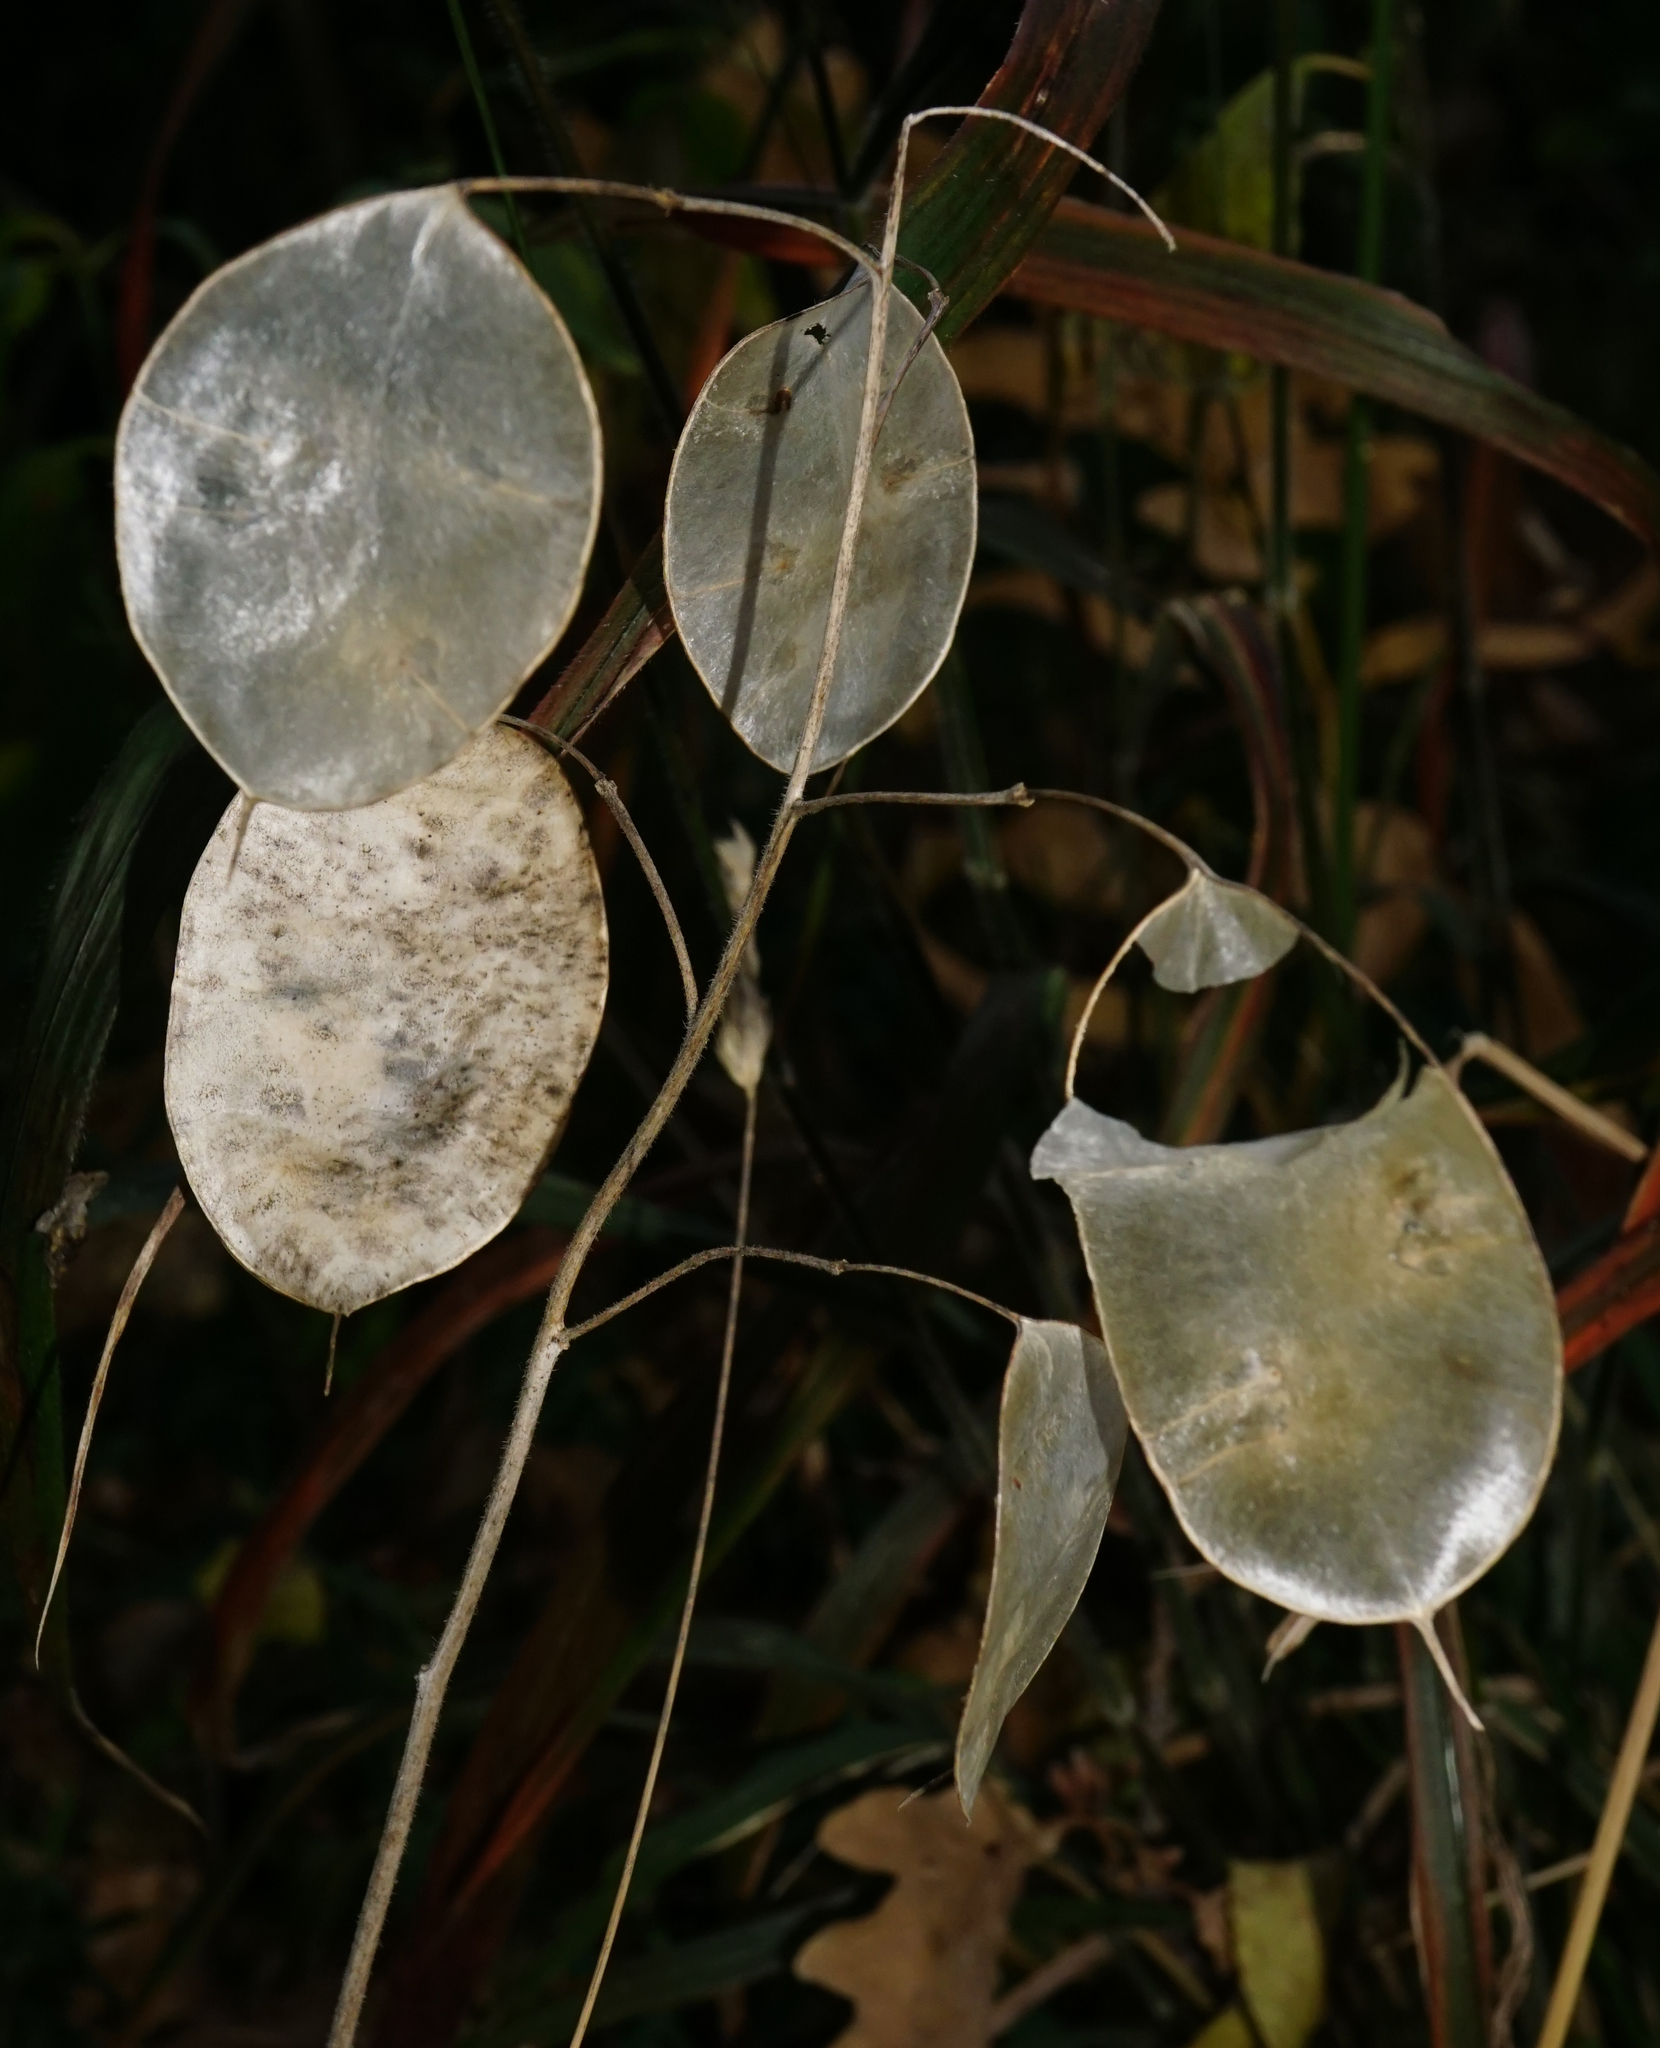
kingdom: Plantae
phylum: Tracheophyta
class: Magnoliopsida
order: Brassicales
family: Brassicaceae
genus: Lunaria
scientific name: Lunaria annua
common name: Honesty
